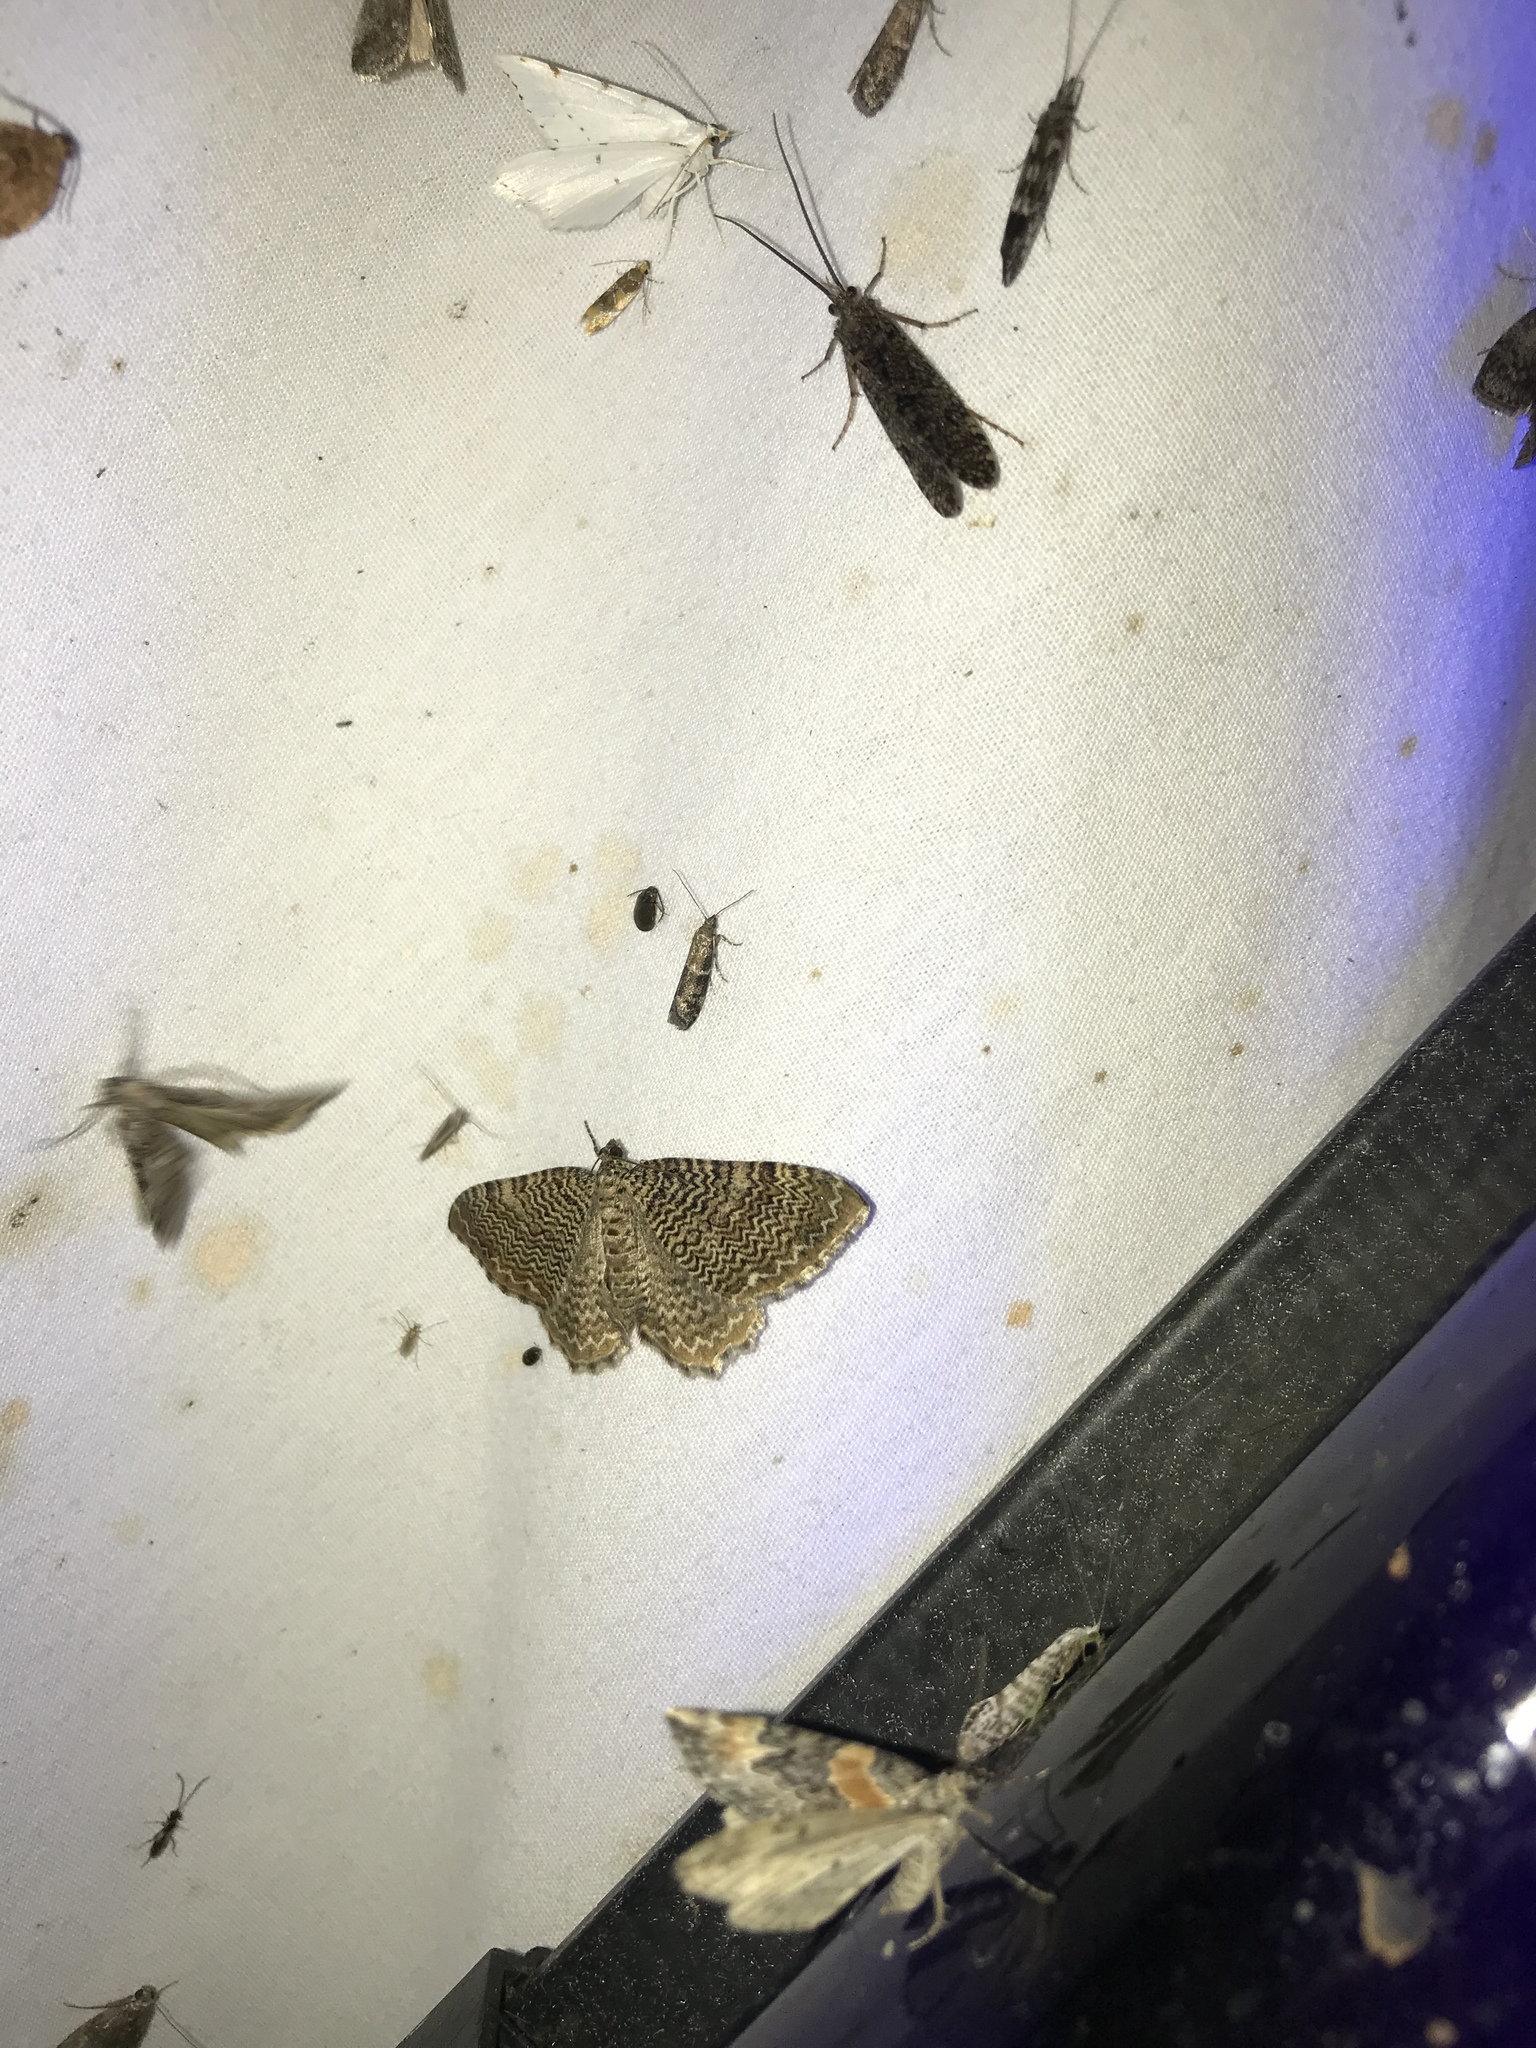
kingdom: Animalia
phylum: Arthropoda
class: Insecta
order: Lepidoptera
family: Geometridae
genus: Rheumaptera
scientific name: Rheumaptera prunivorata
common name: Cherry scallop shell moth
